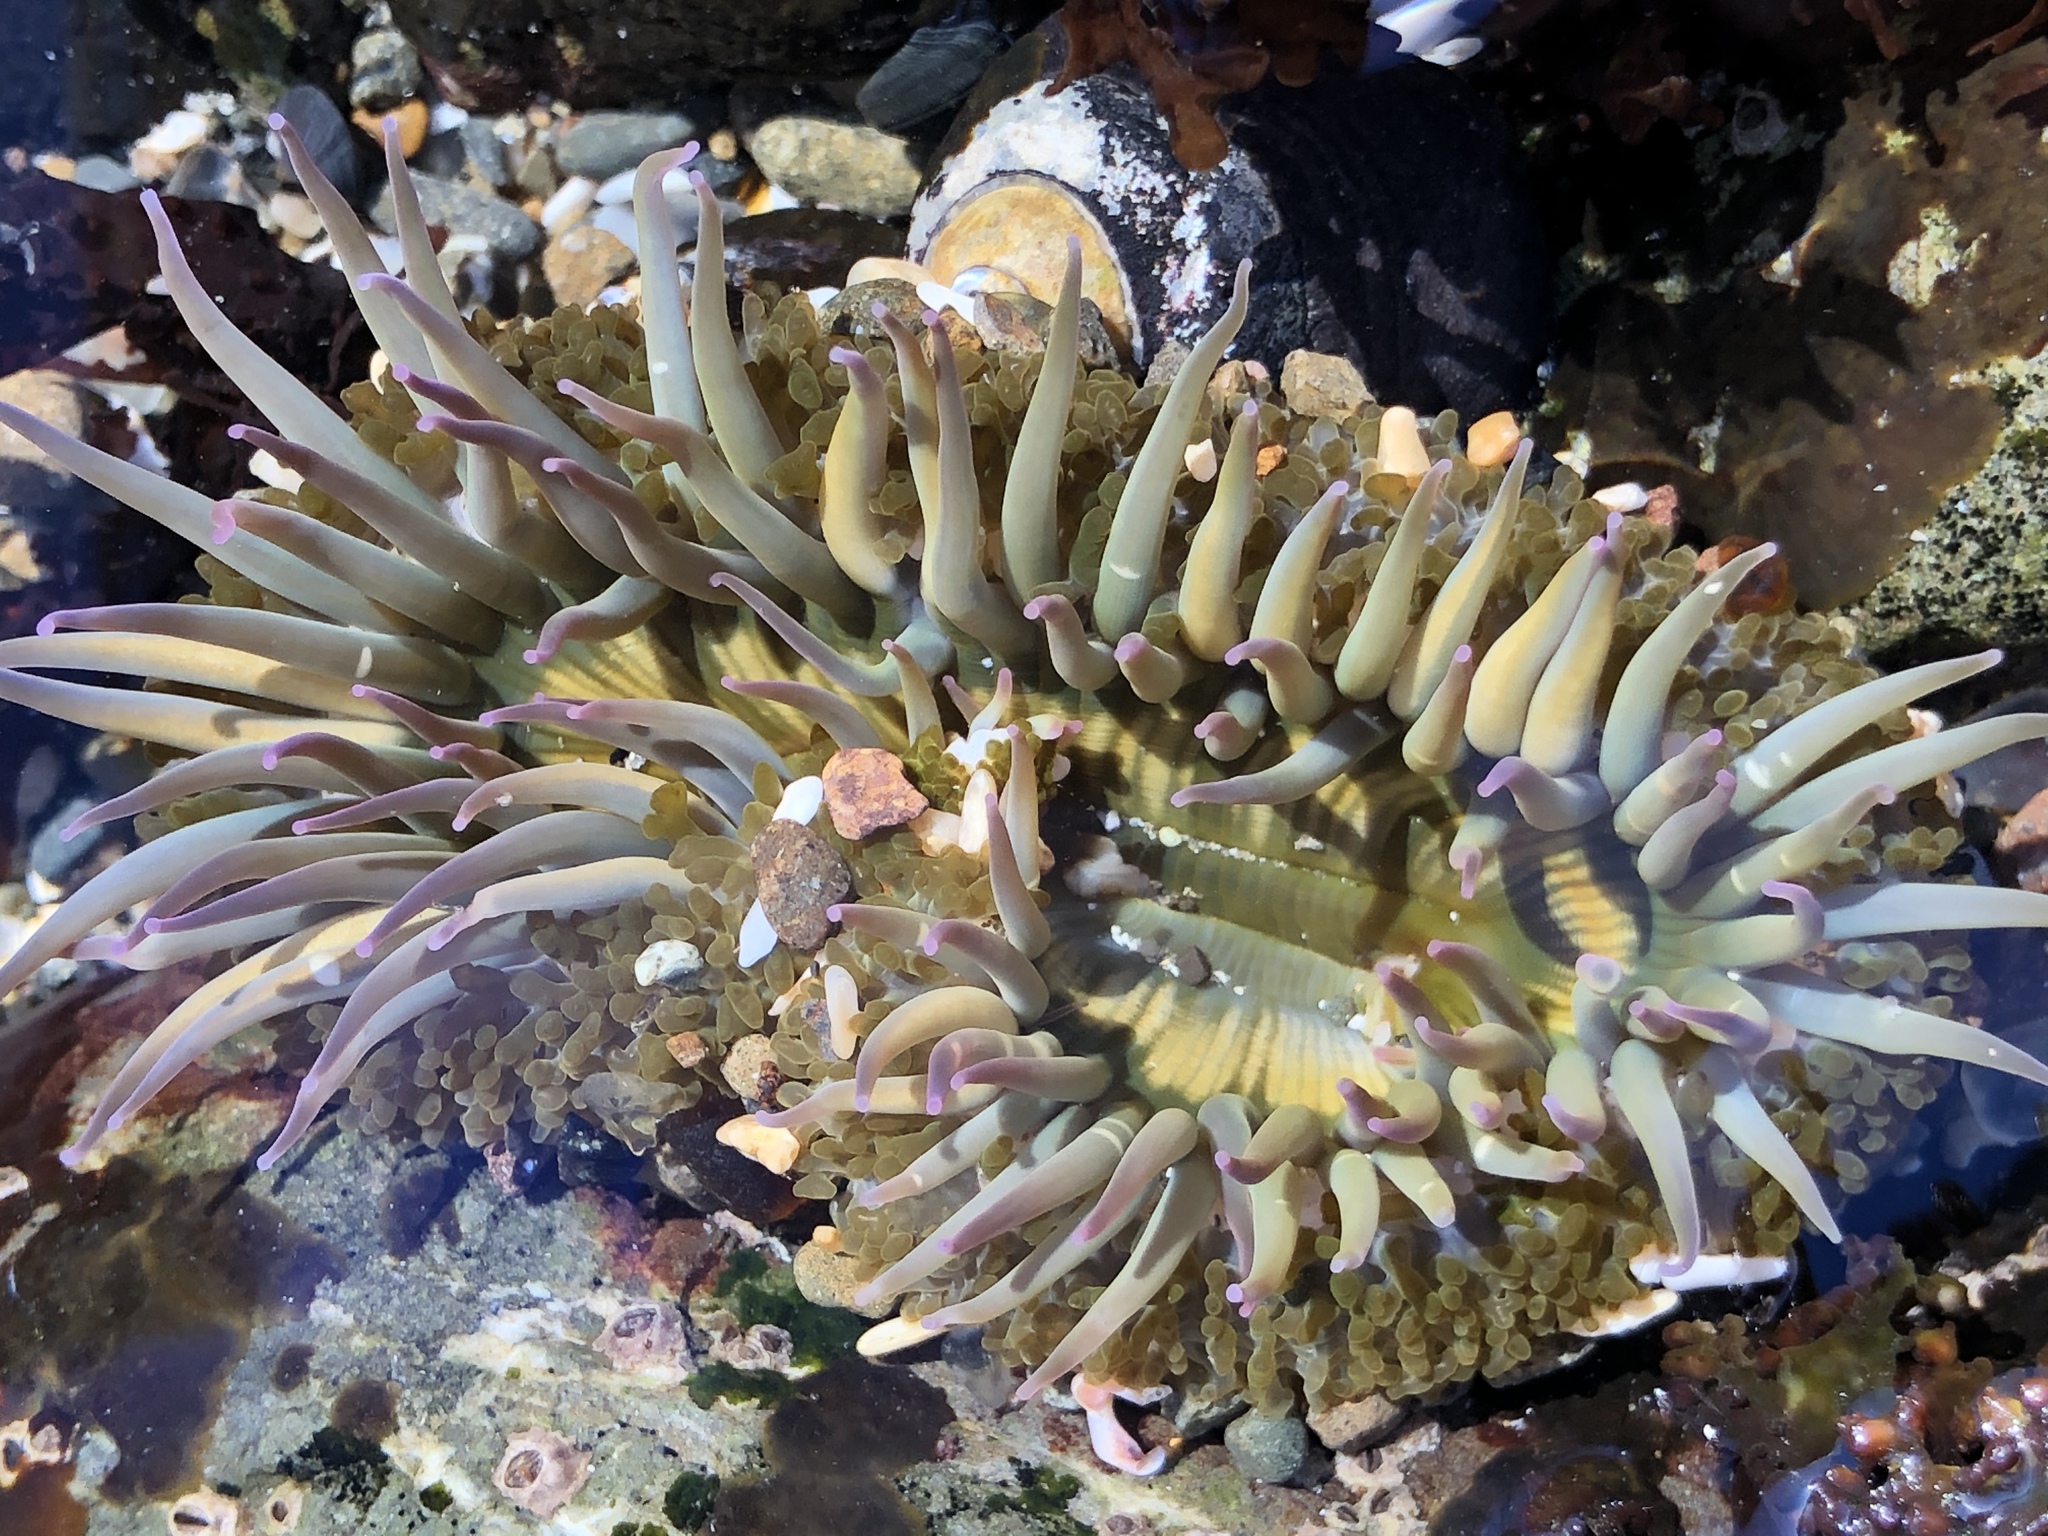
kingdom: Animalia
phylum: Cnidaria
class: Anthozoa
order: Actiniaria
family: Actiniidae
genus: Anthopleura
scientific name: Anthopleura sola
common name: Sun anemone
